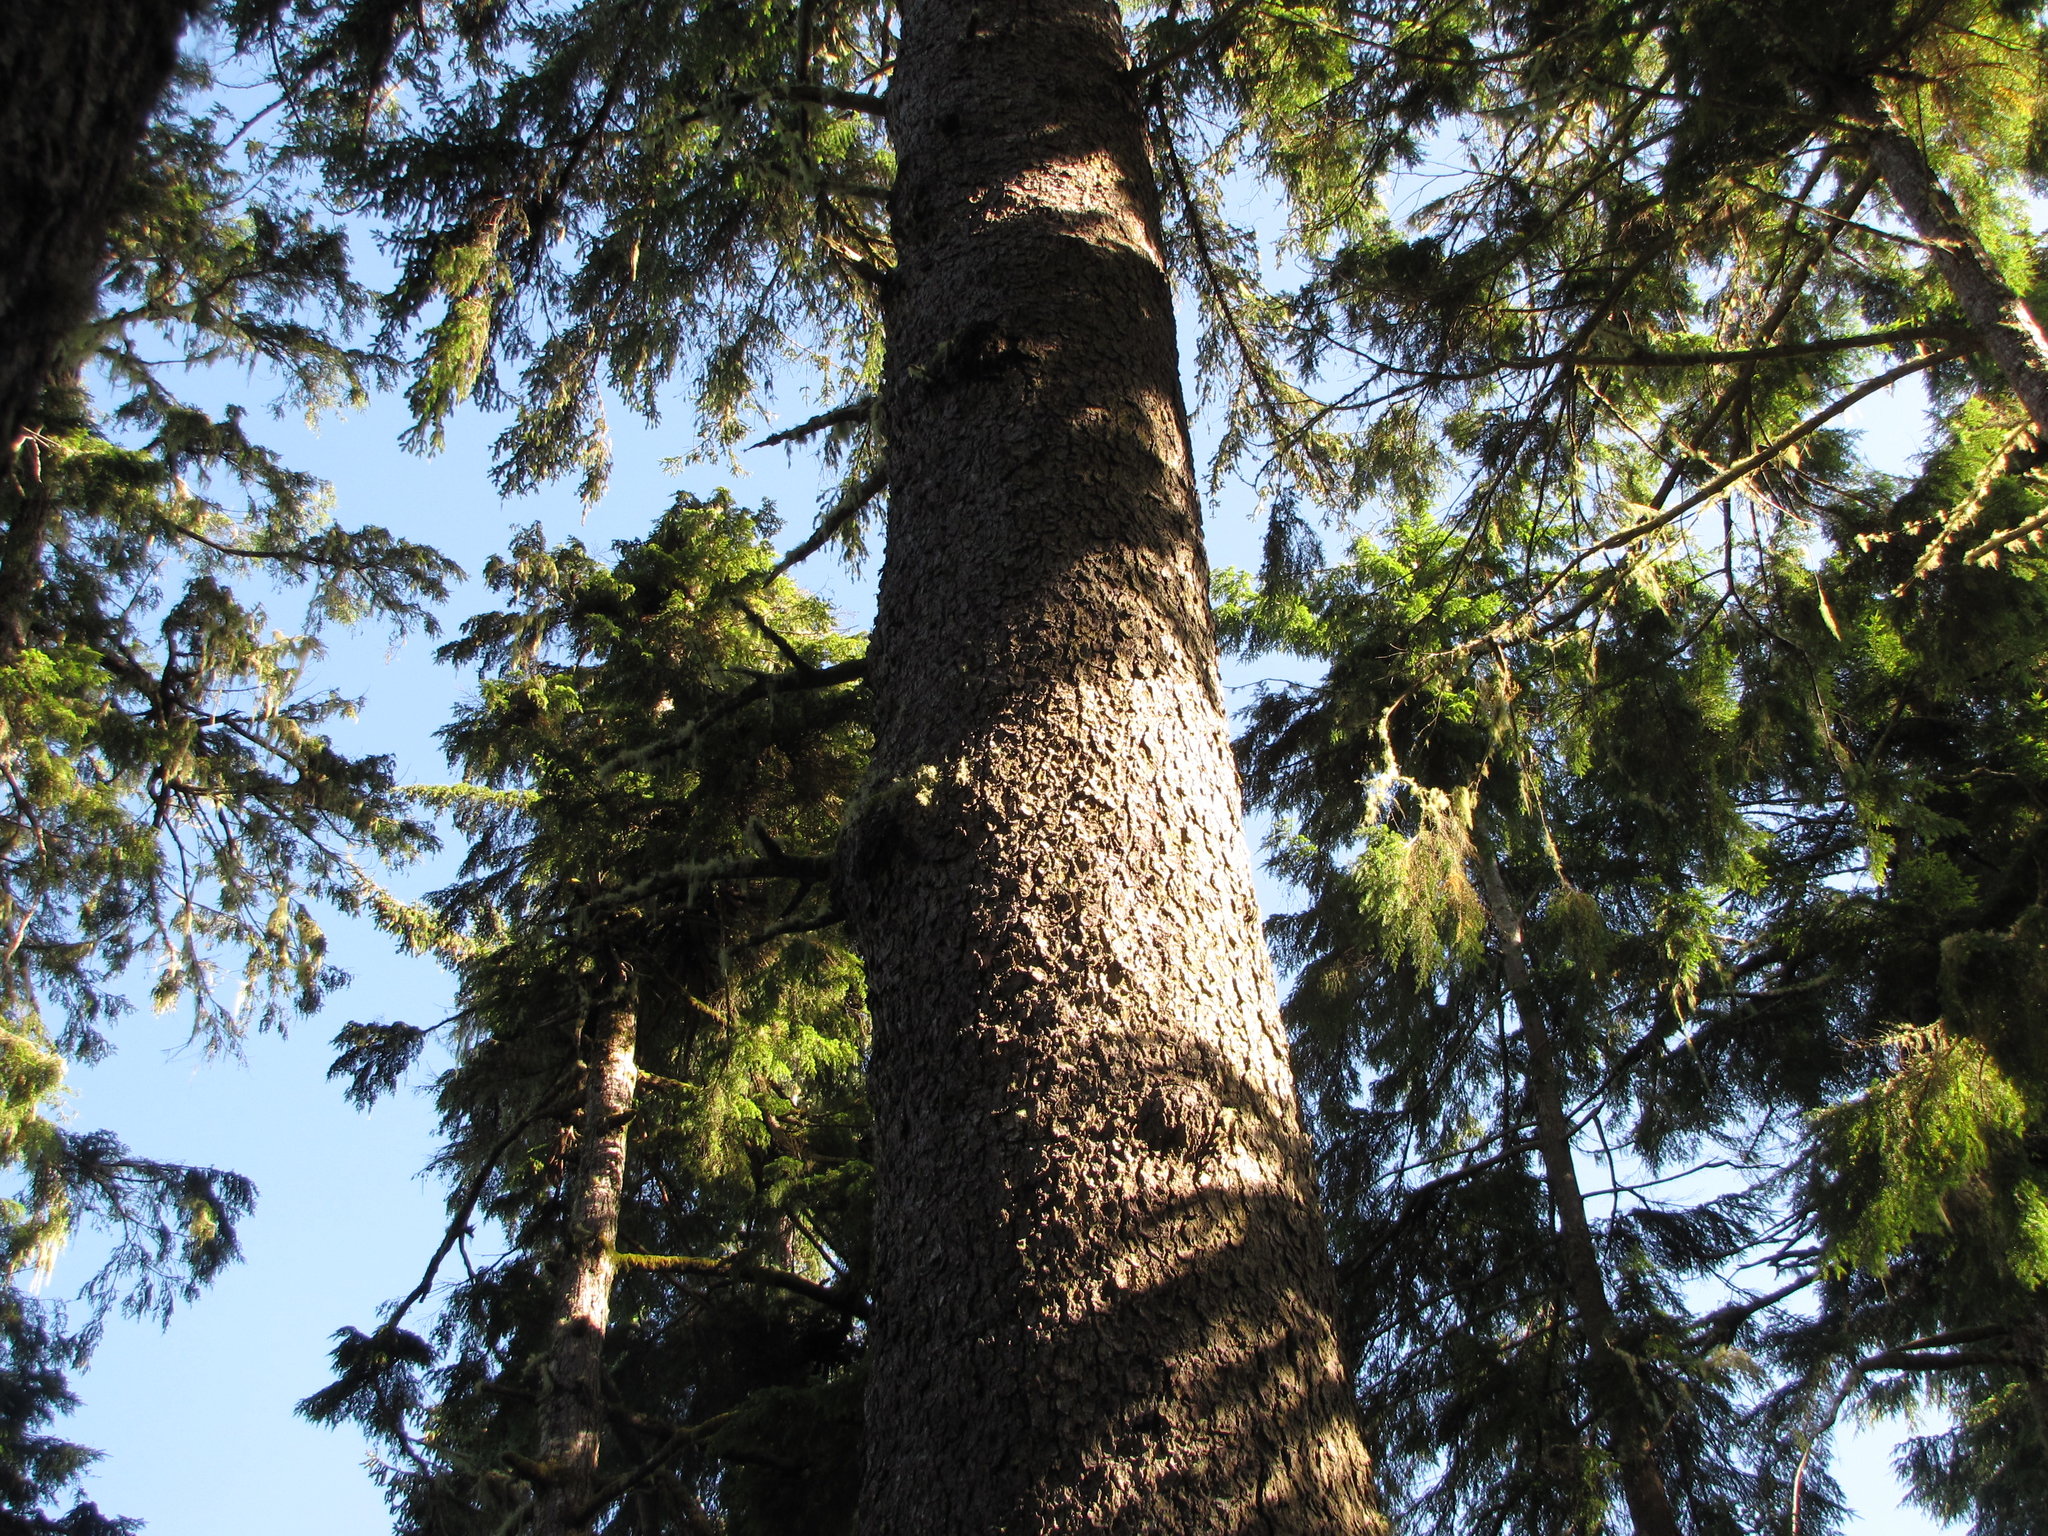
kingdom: Plantae
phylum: Tracheophyta
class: Pinopsida
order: Pinales
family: Pinaceae
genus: Picea
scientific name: Picea sitchensis
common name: Sitka spruce
